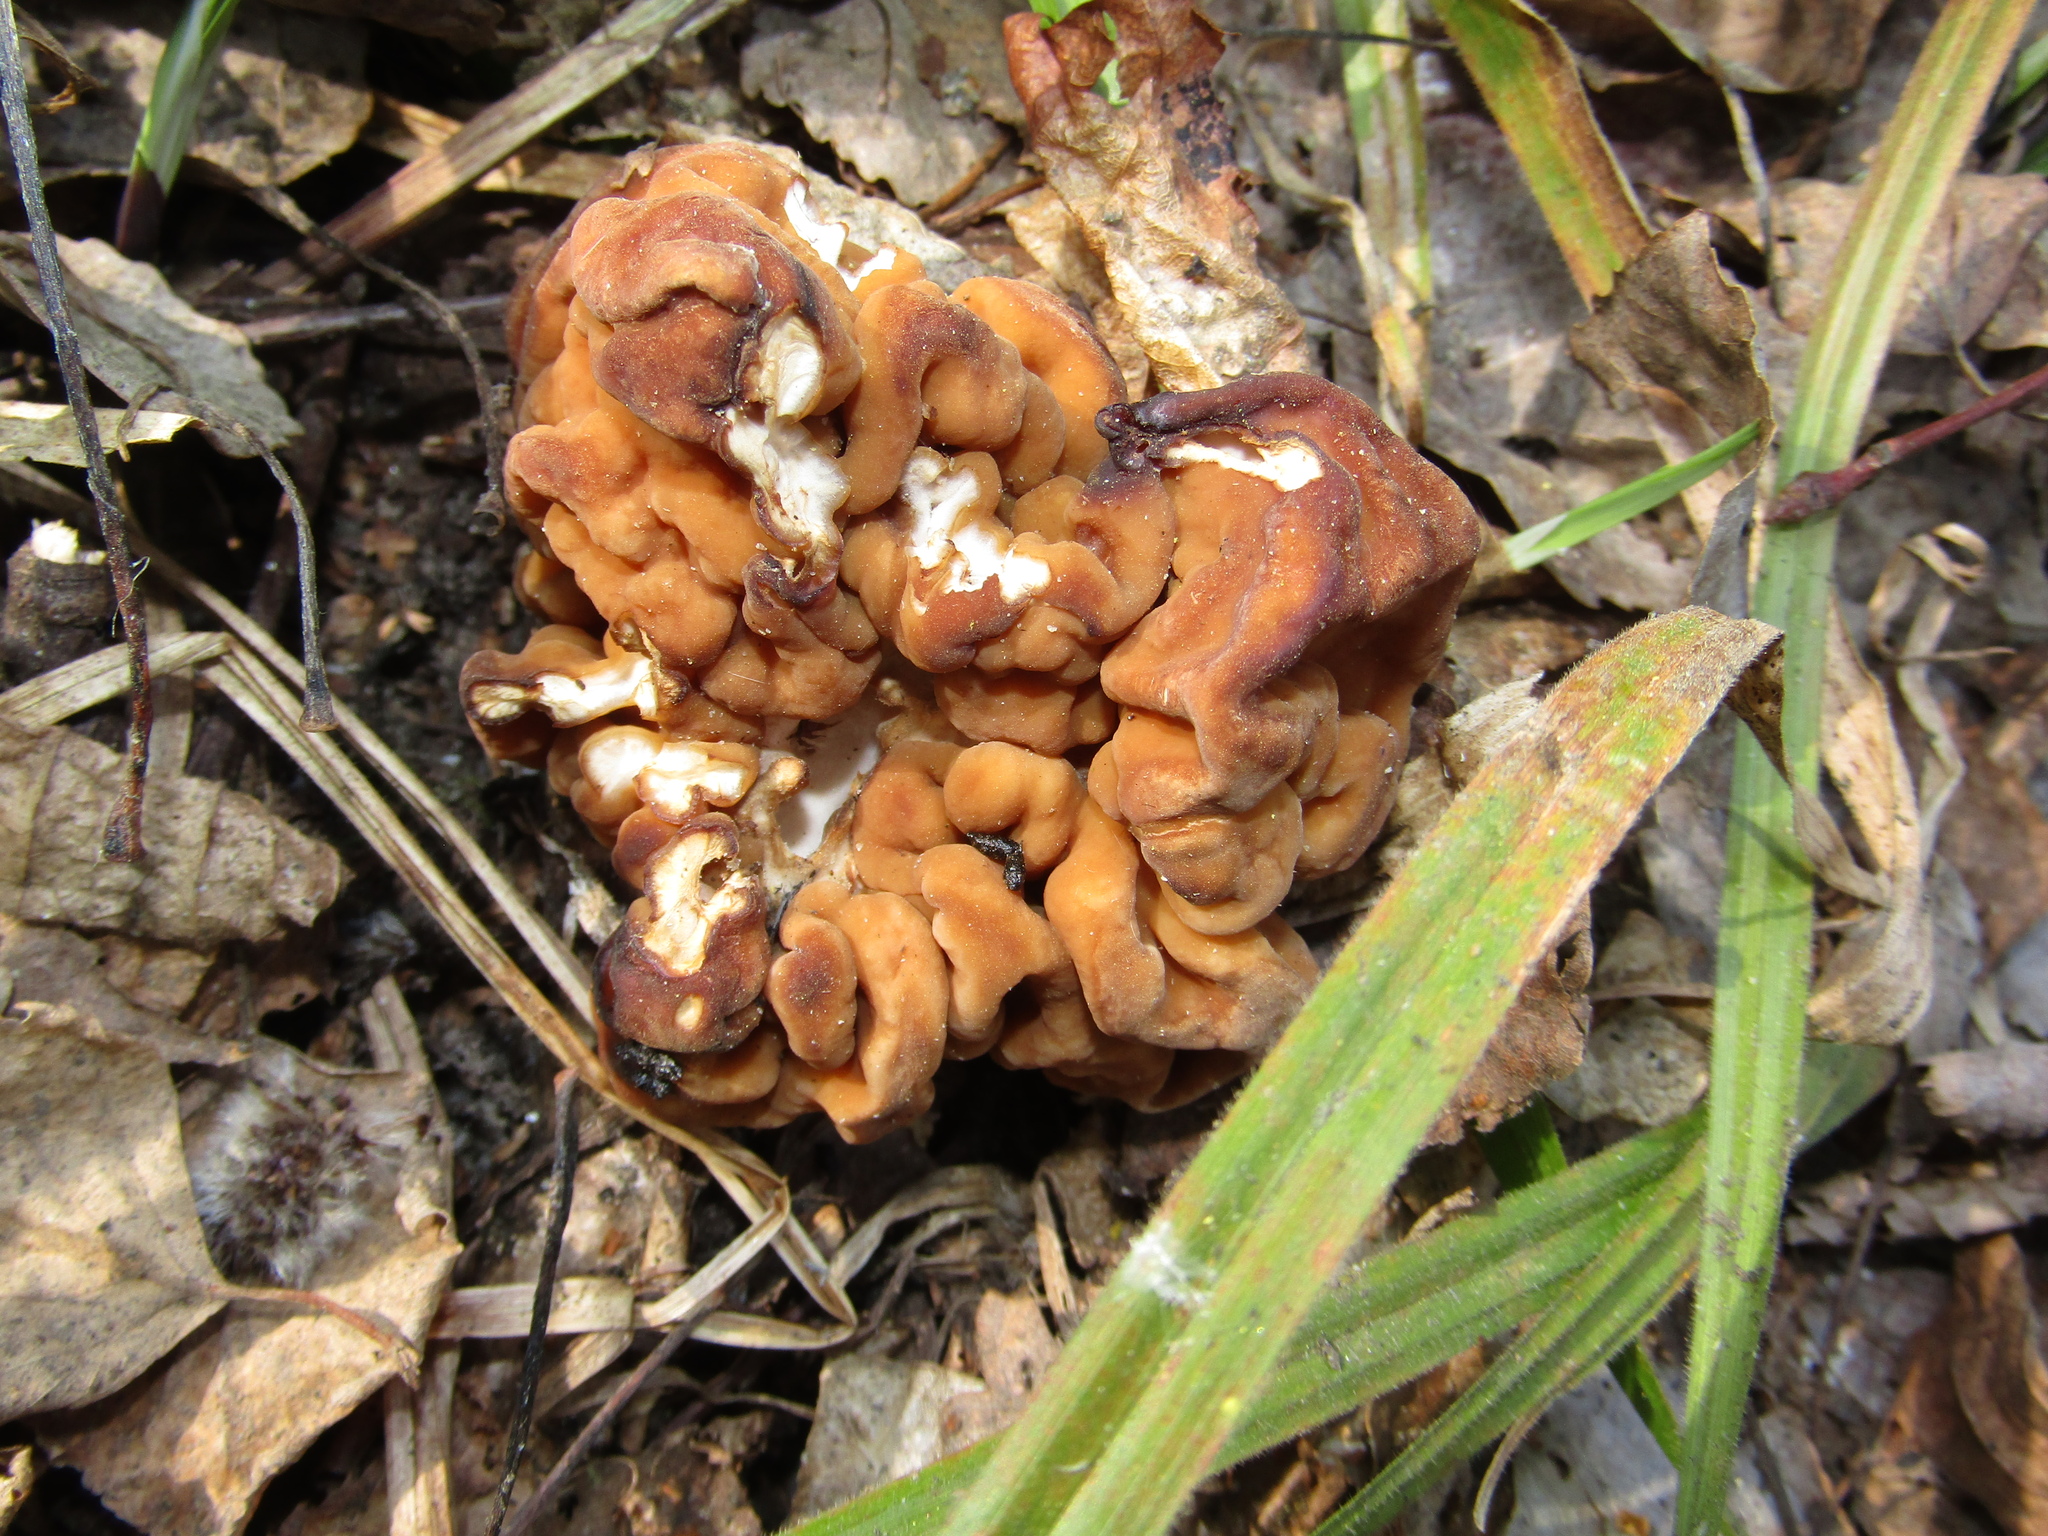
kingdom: Fungi
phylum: Ascomycota
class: Pezizomycetes
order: Pezizales
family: Discinaceae
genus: Gyromitra
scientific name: Gyromitra gigas
